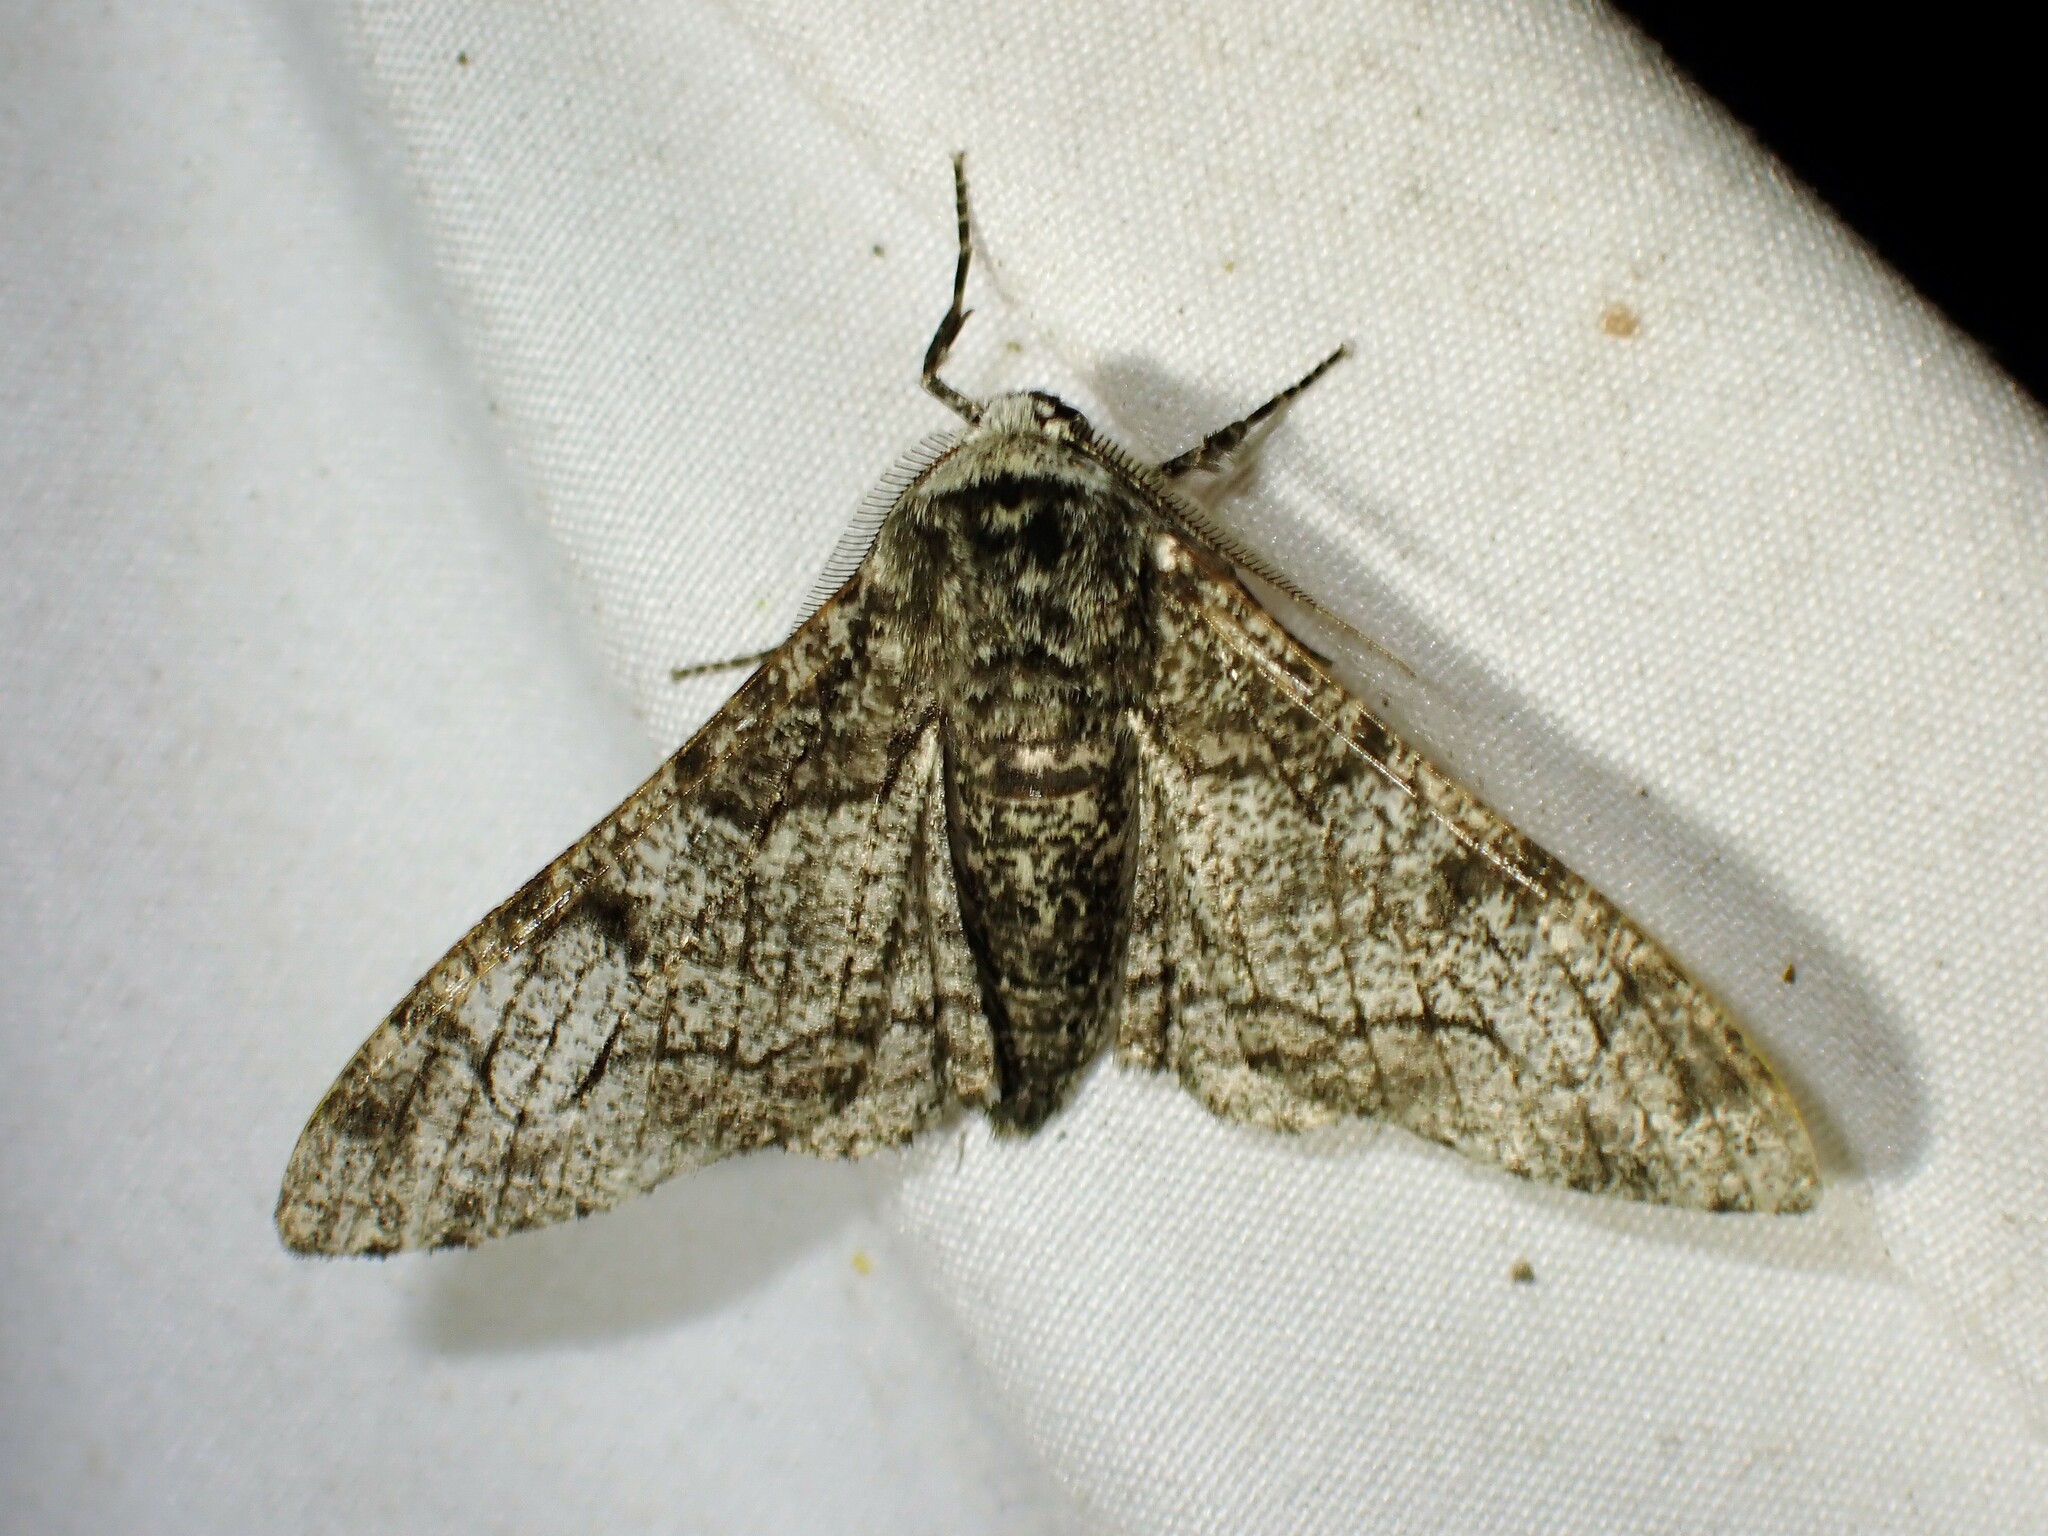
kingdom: Animalia
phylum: Arthropoda
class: Insecta
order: Lepidoptera
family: Geometridae
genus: Biston
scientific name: Biston betularia
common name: Peppered moth
